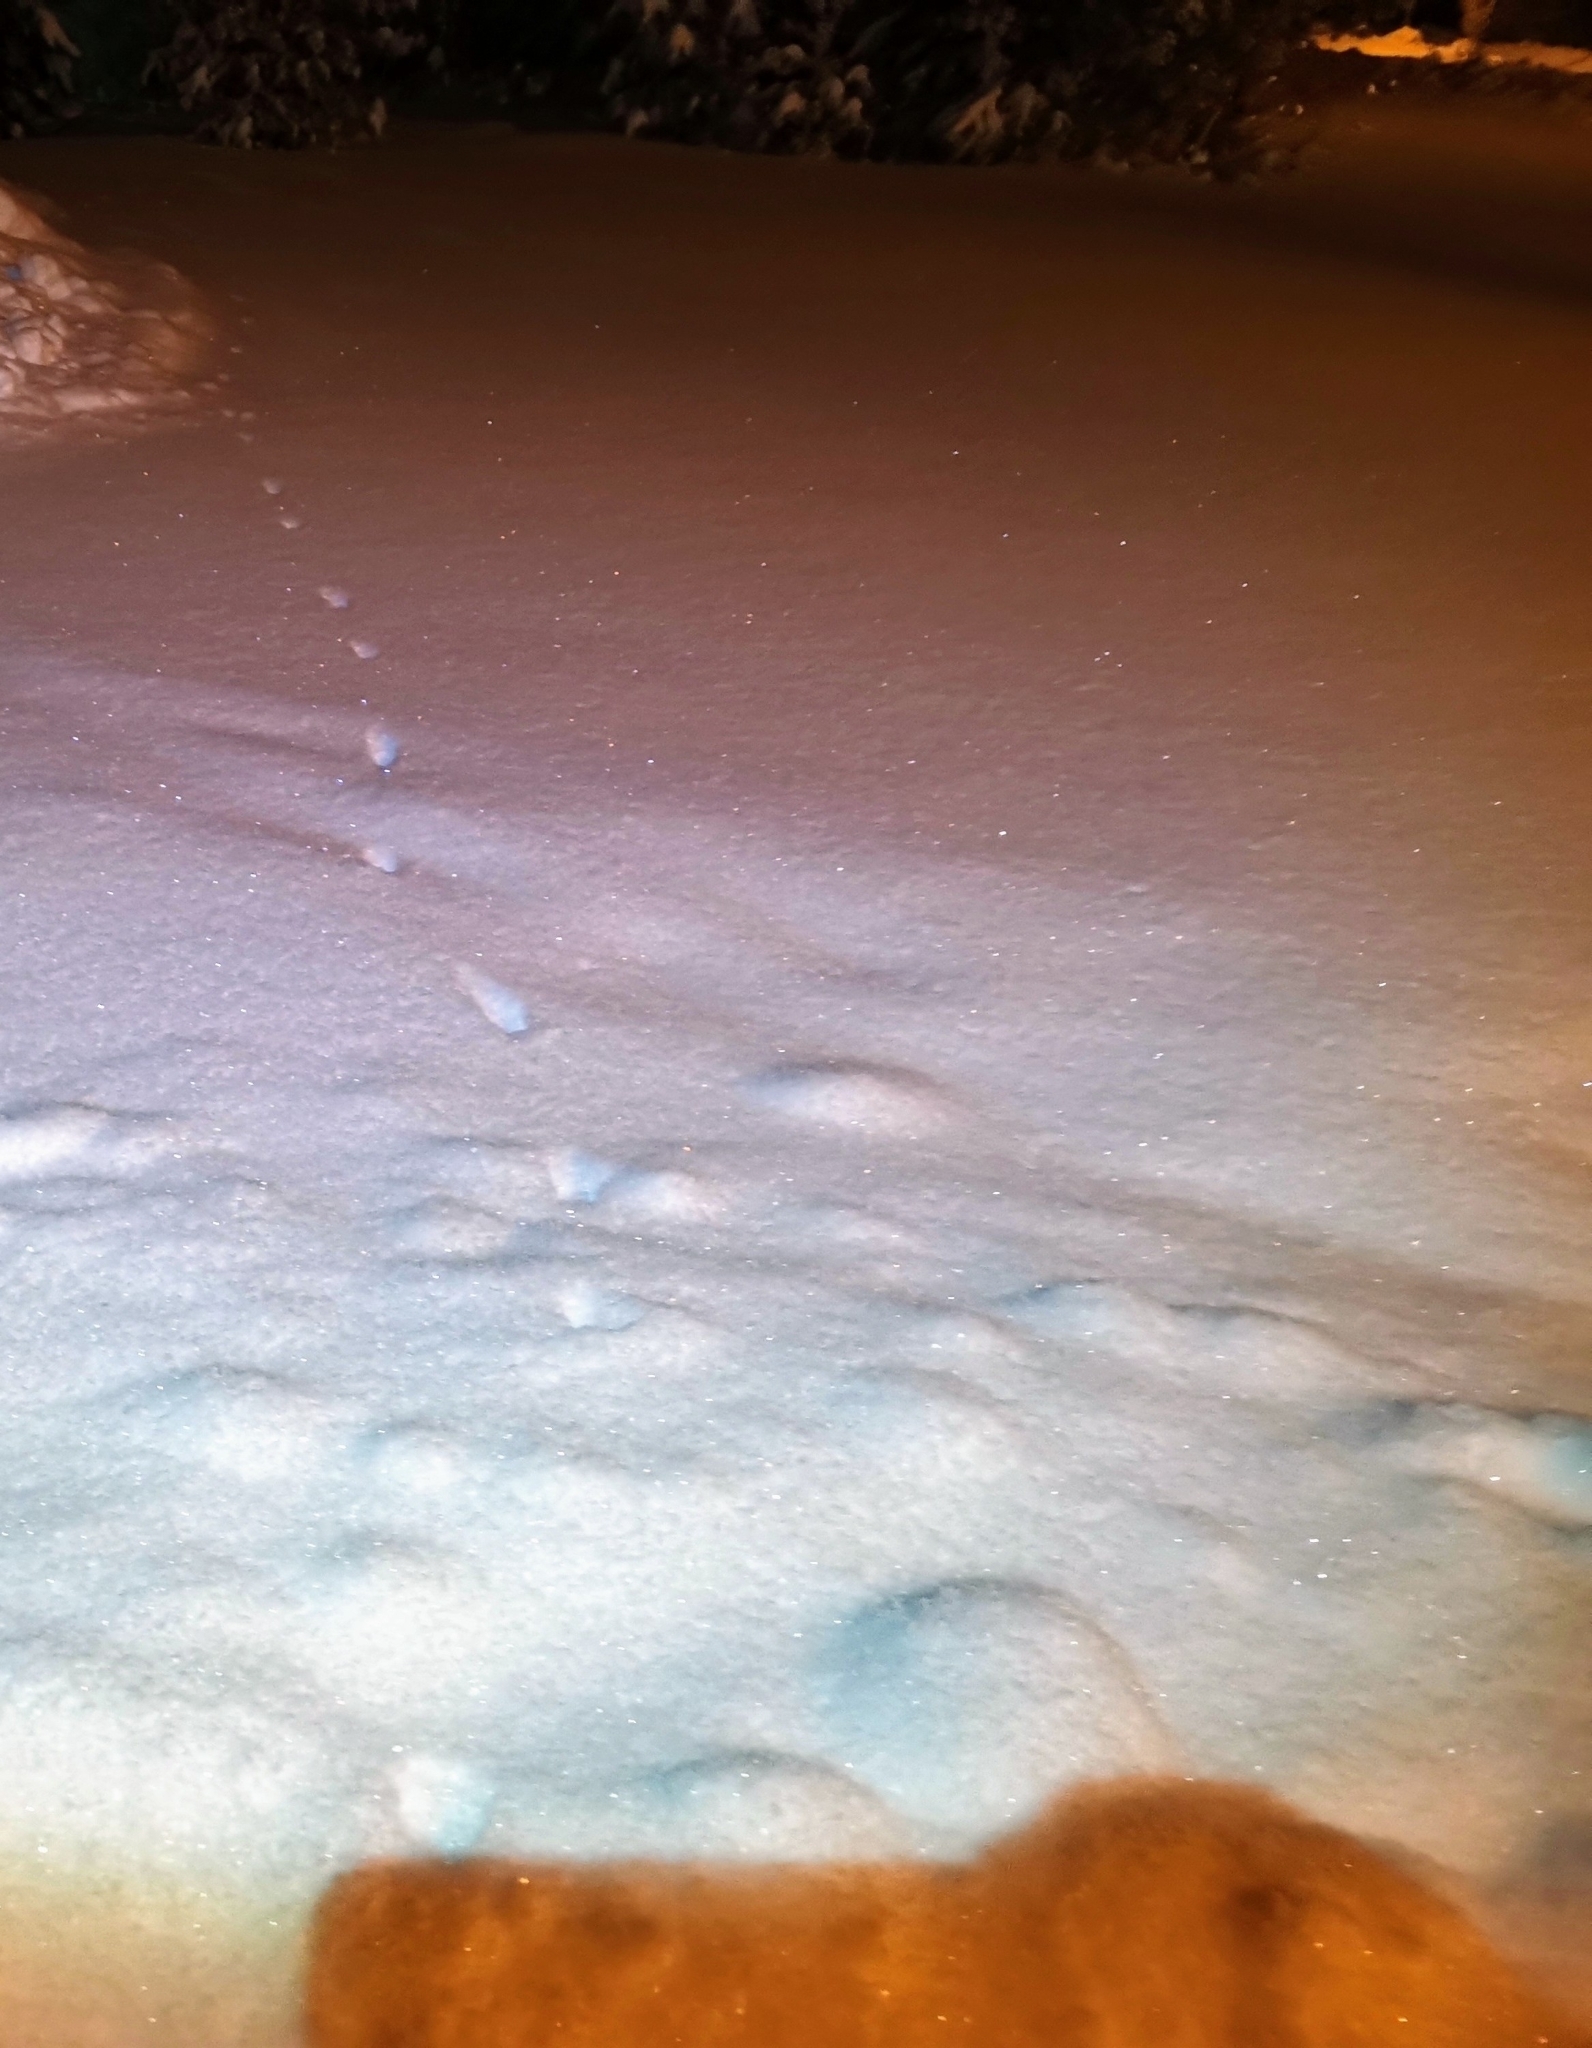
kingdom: Animalia
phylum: Chordata
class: Mammalia
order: Carnivora
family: Mustelidae
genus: Mustela
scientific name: Mustela erminea
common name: Stoat
